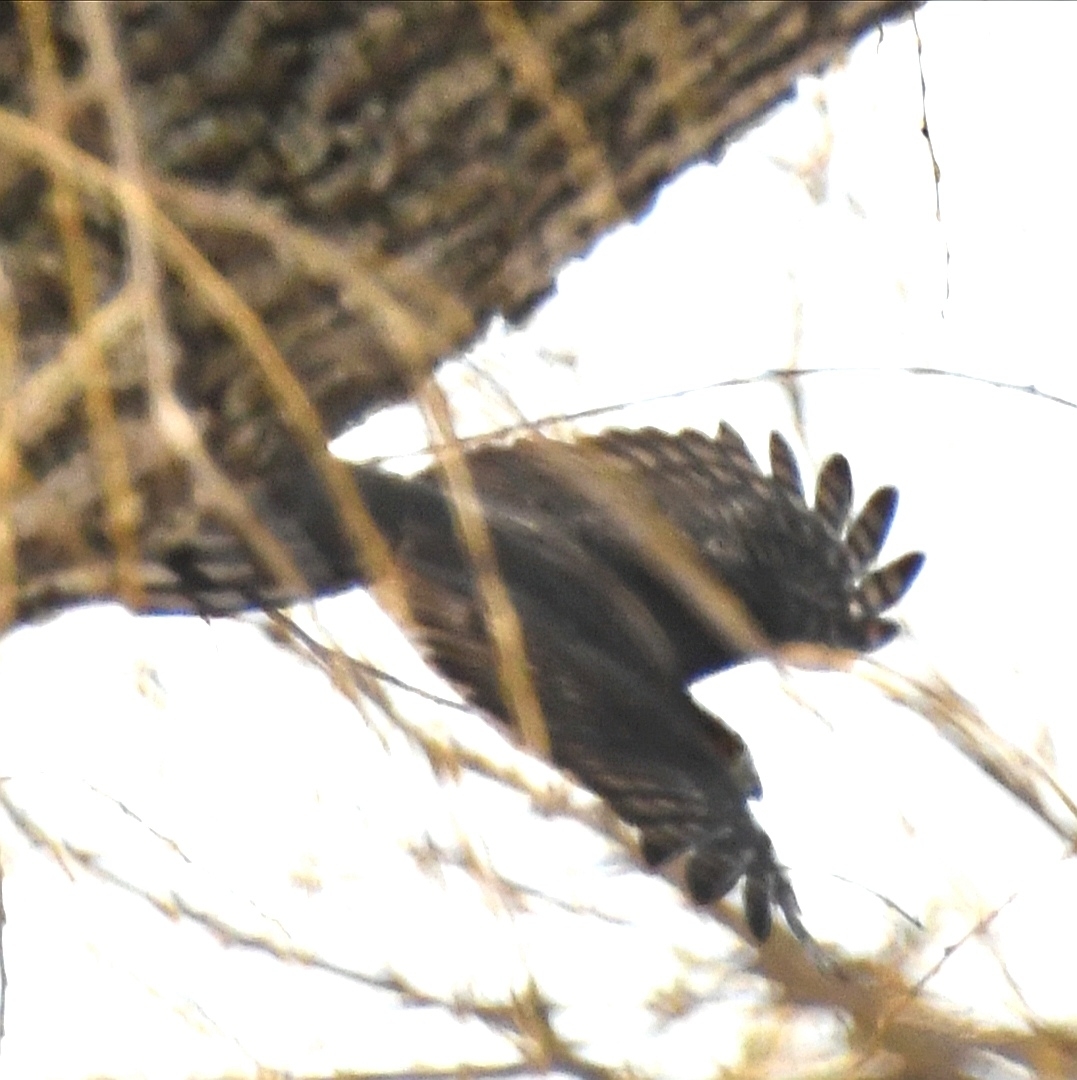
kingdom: Animalia
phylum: Chordata
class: Aves
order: Accipitriformes
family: Accipitridae
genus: Accipiter
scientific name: Accipiter striatus
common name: Sharp-shinned hawk
